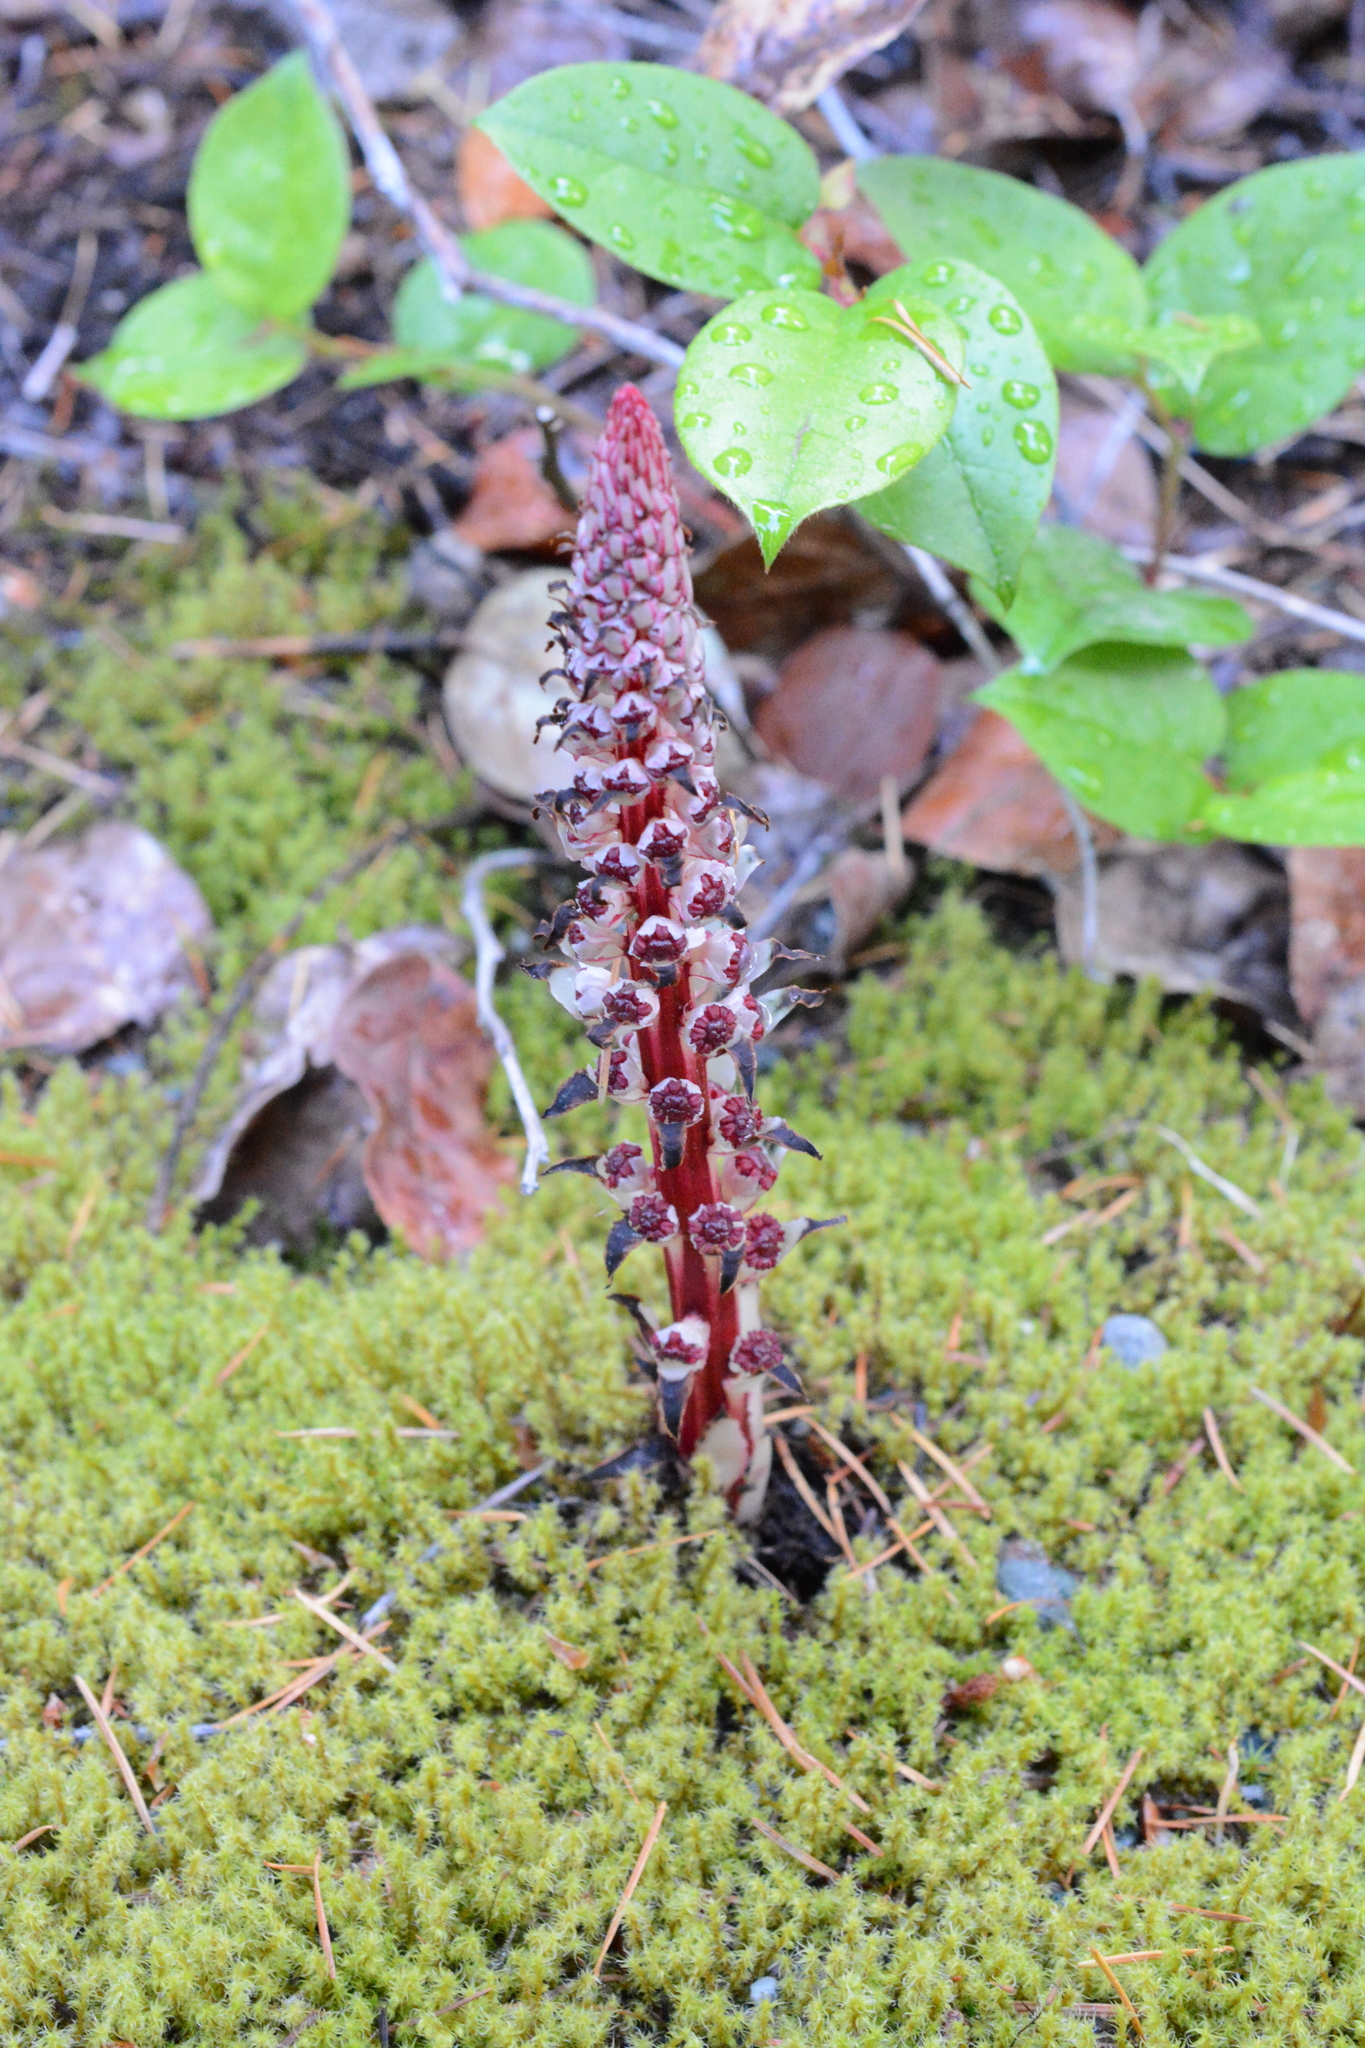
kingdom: Plantae
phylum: Tracheophyta
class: Magnoliopsida
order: Ericales
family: Ericaceae
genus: Allotropa
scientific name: Allotropa virgata
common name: Candy-striped allotropa
